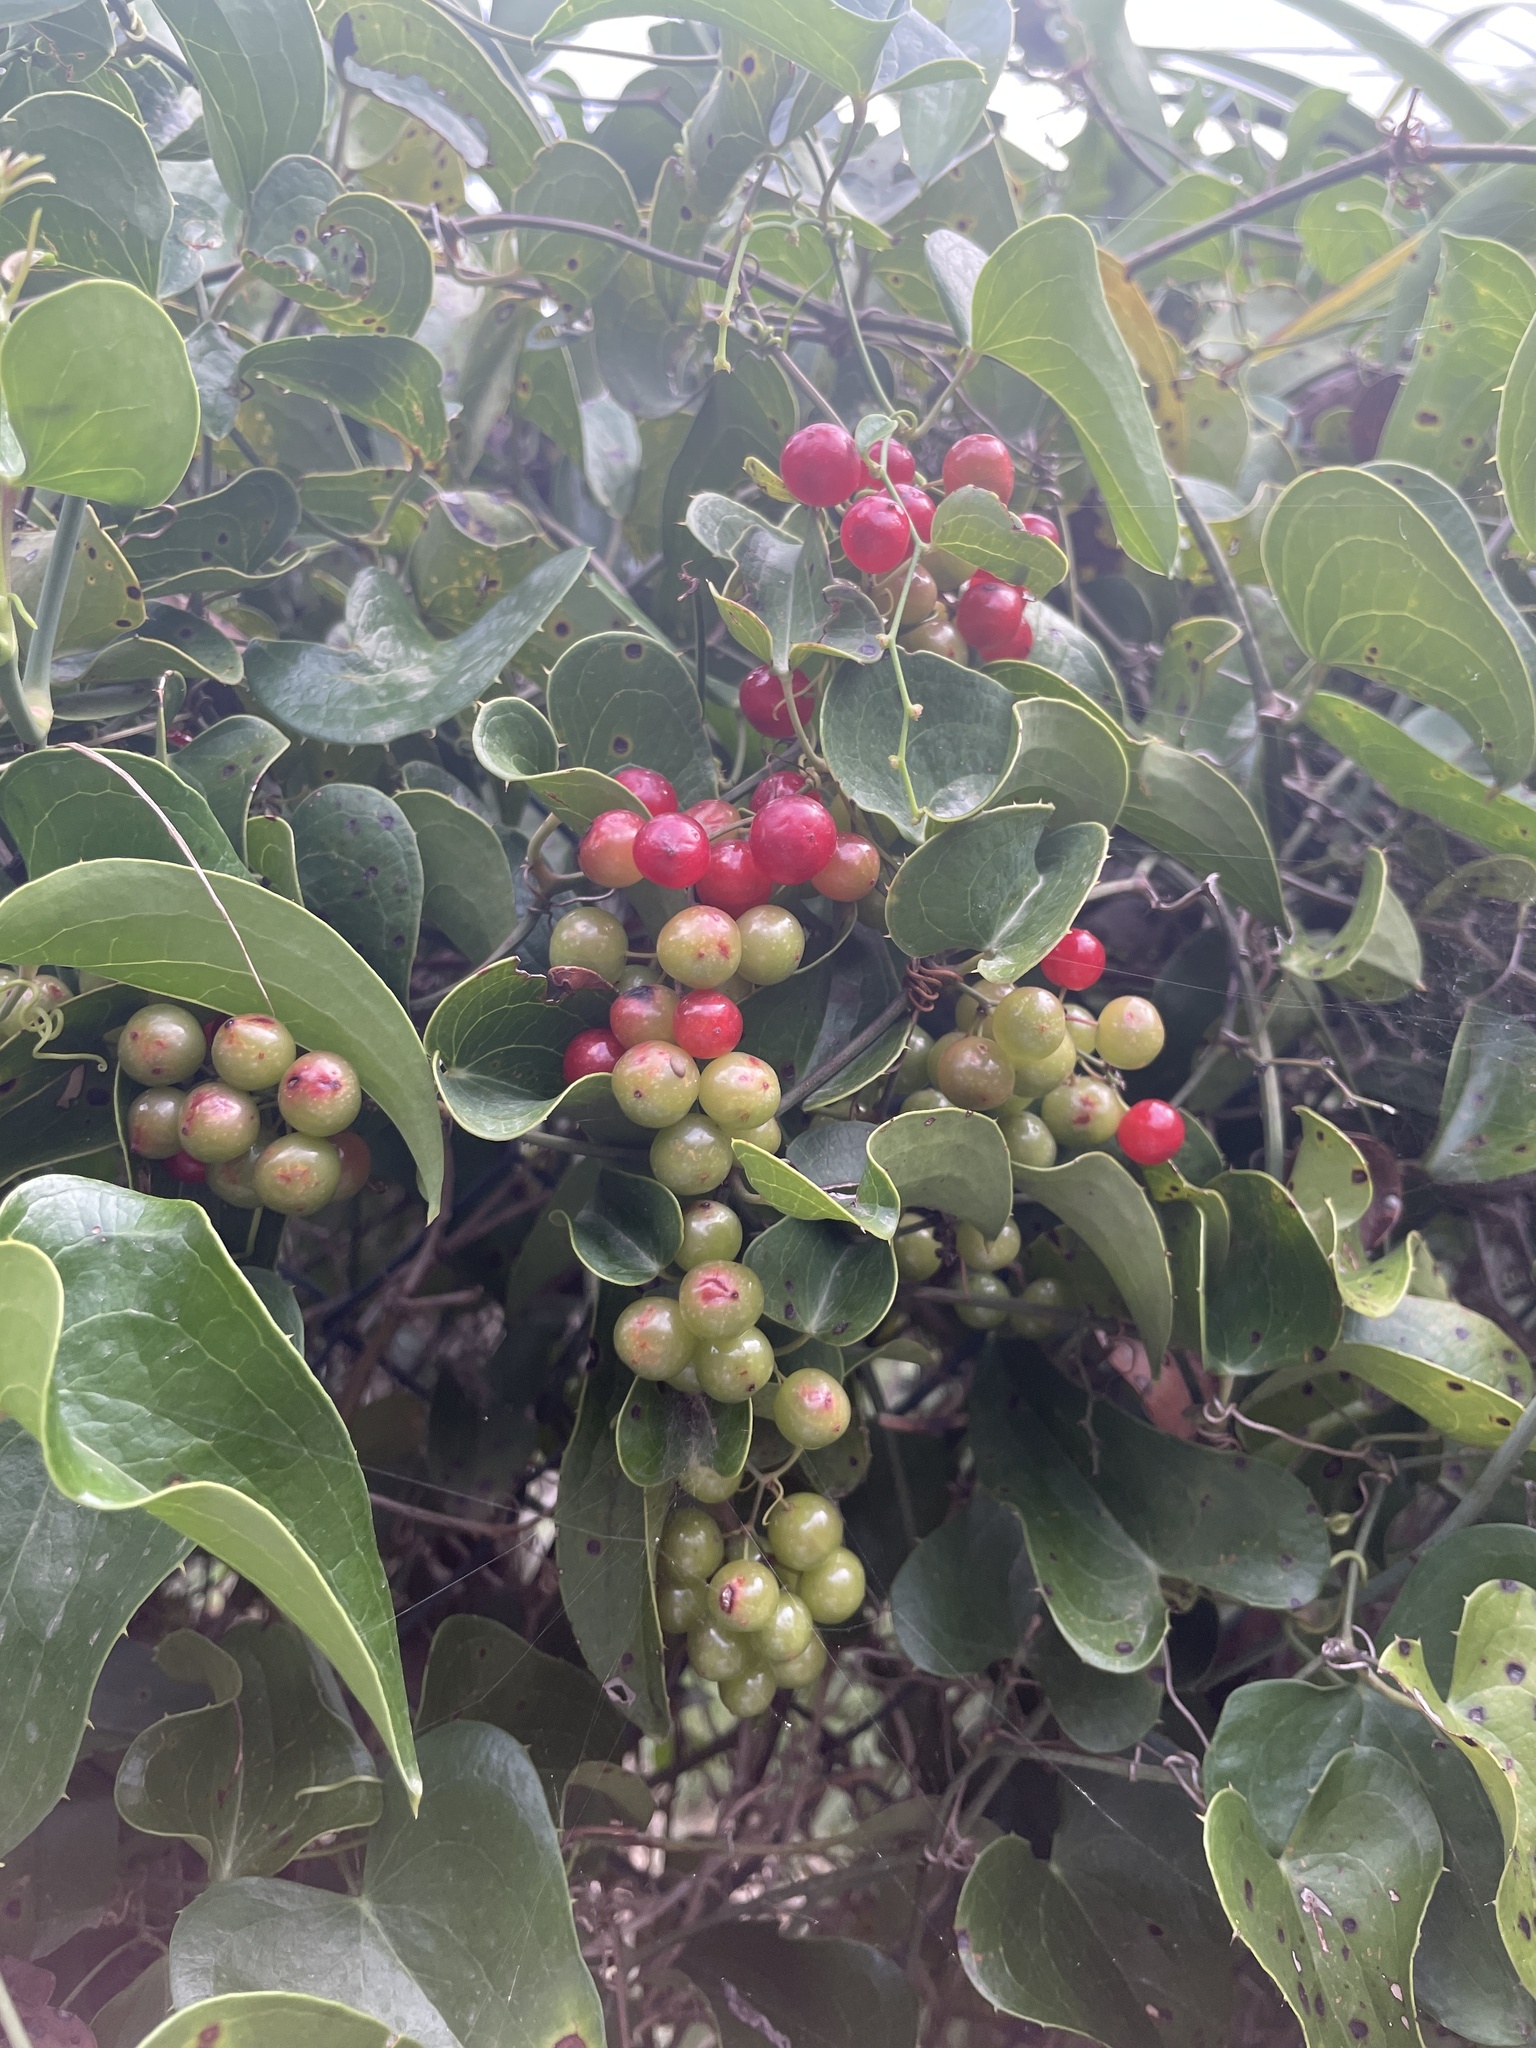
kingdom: Plantae
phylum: Tracheophyta
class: Liliopsida
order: Liliales
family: Smilacaceae
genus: Smilax
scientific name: Smilax aspera
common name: Common smilax
